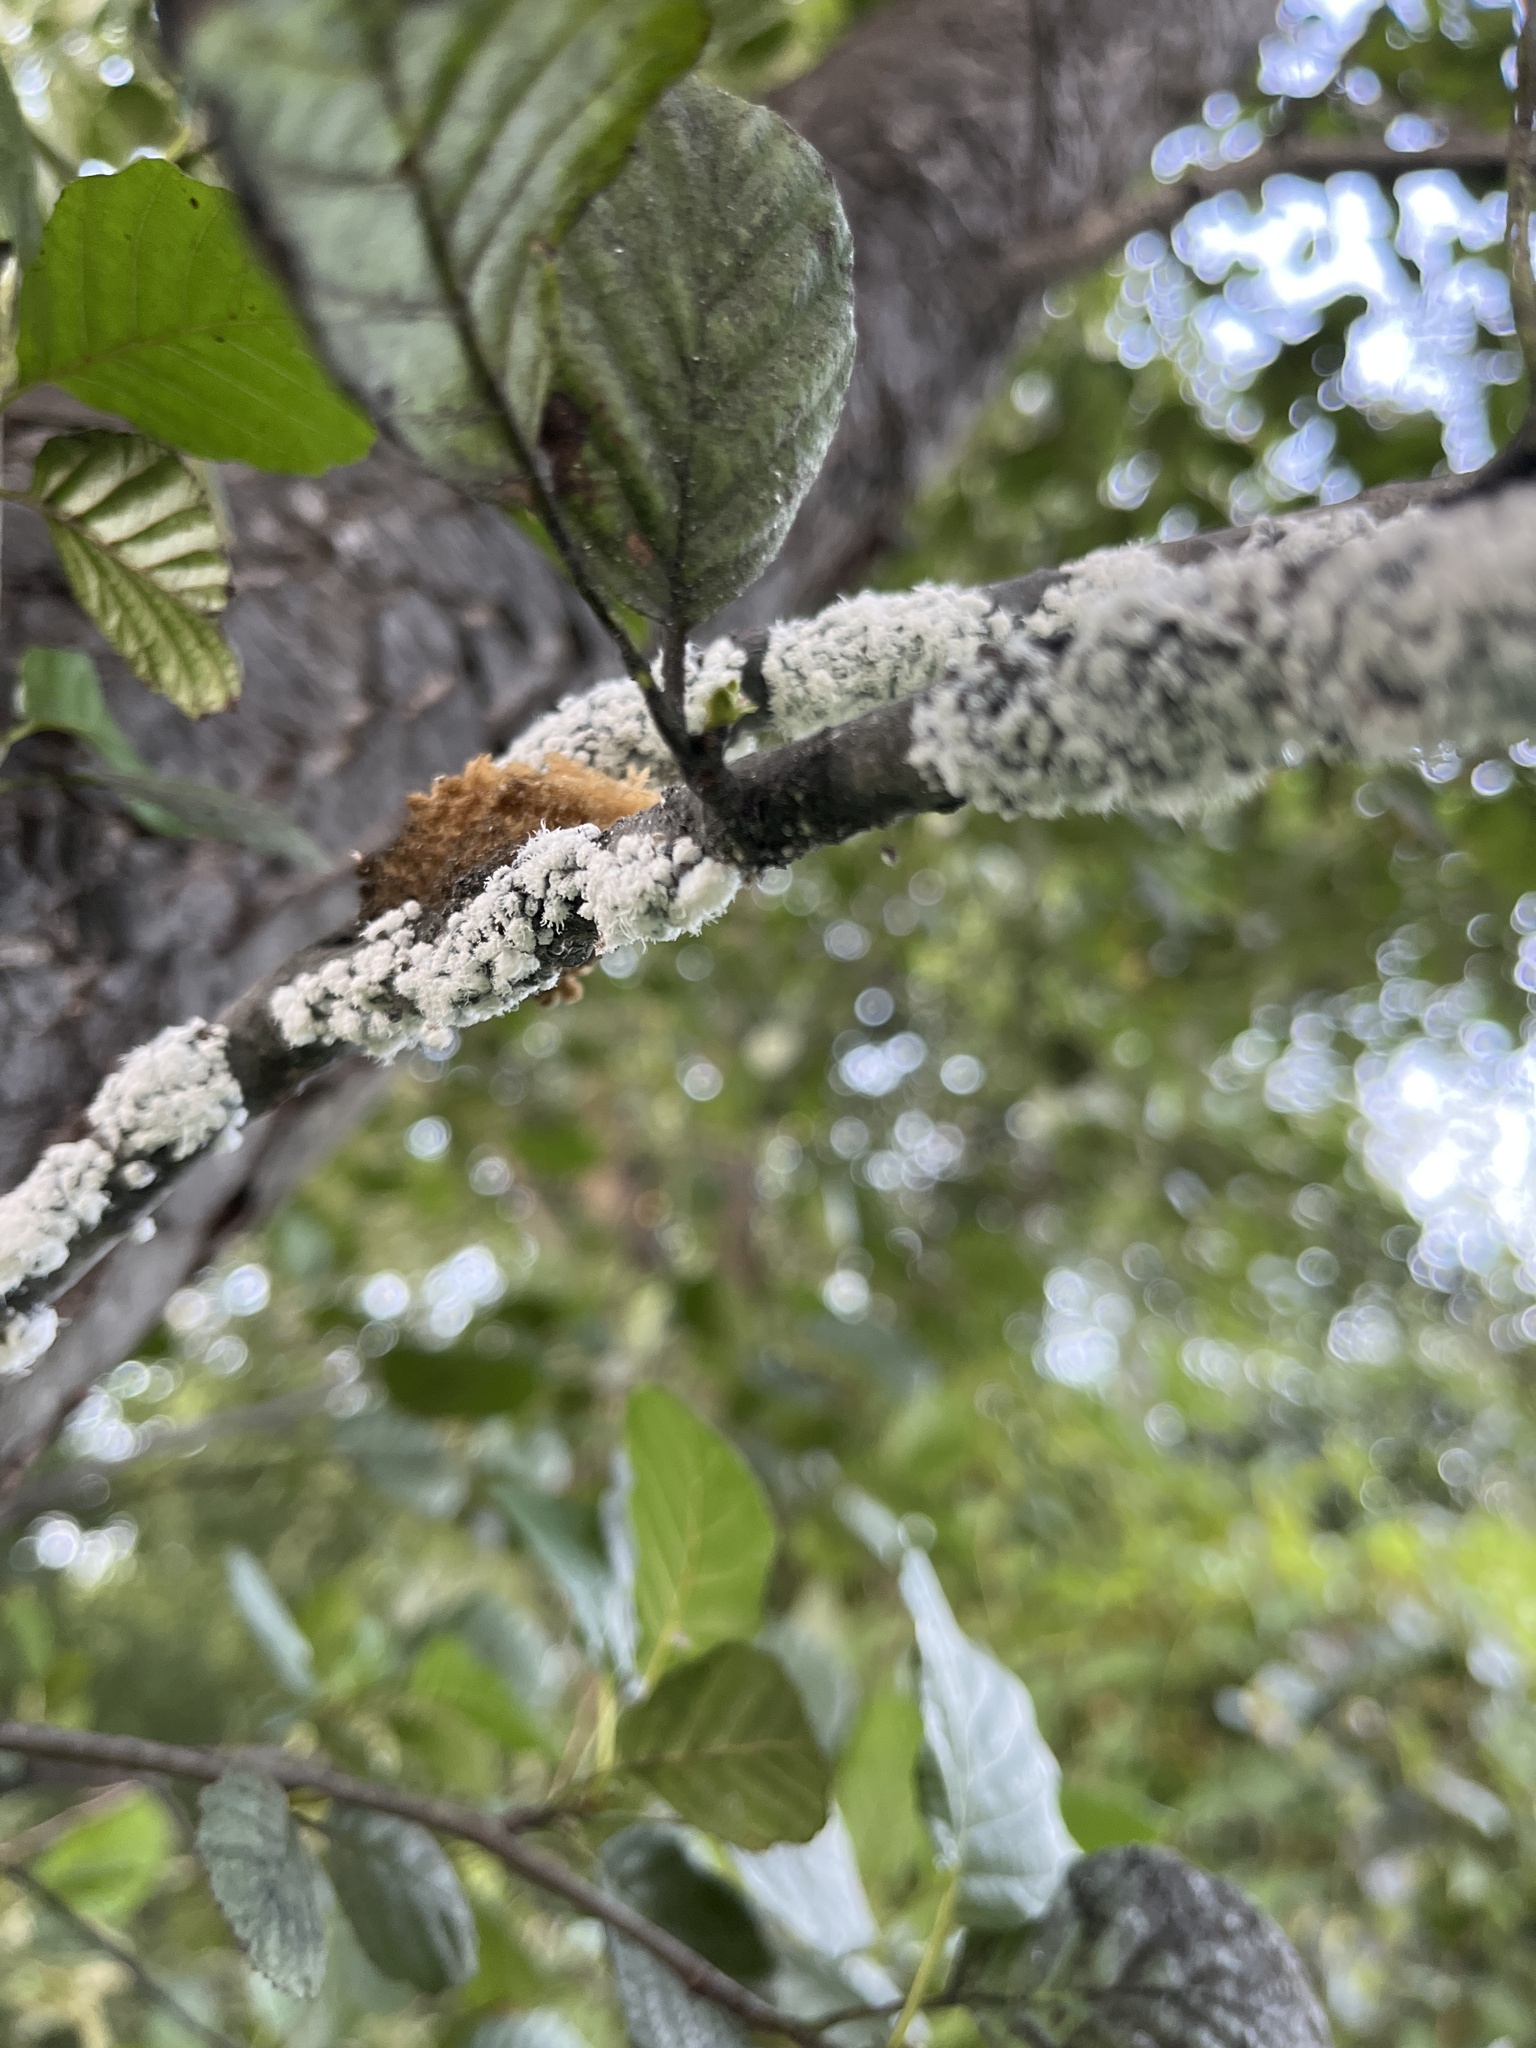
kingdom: Animalia
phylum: Arthropoda
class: Insecta
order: Hemiptera
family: Aphididae
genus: Prociphilus
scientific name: Prociphilus tessellatus
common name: Woolly alder aphid
